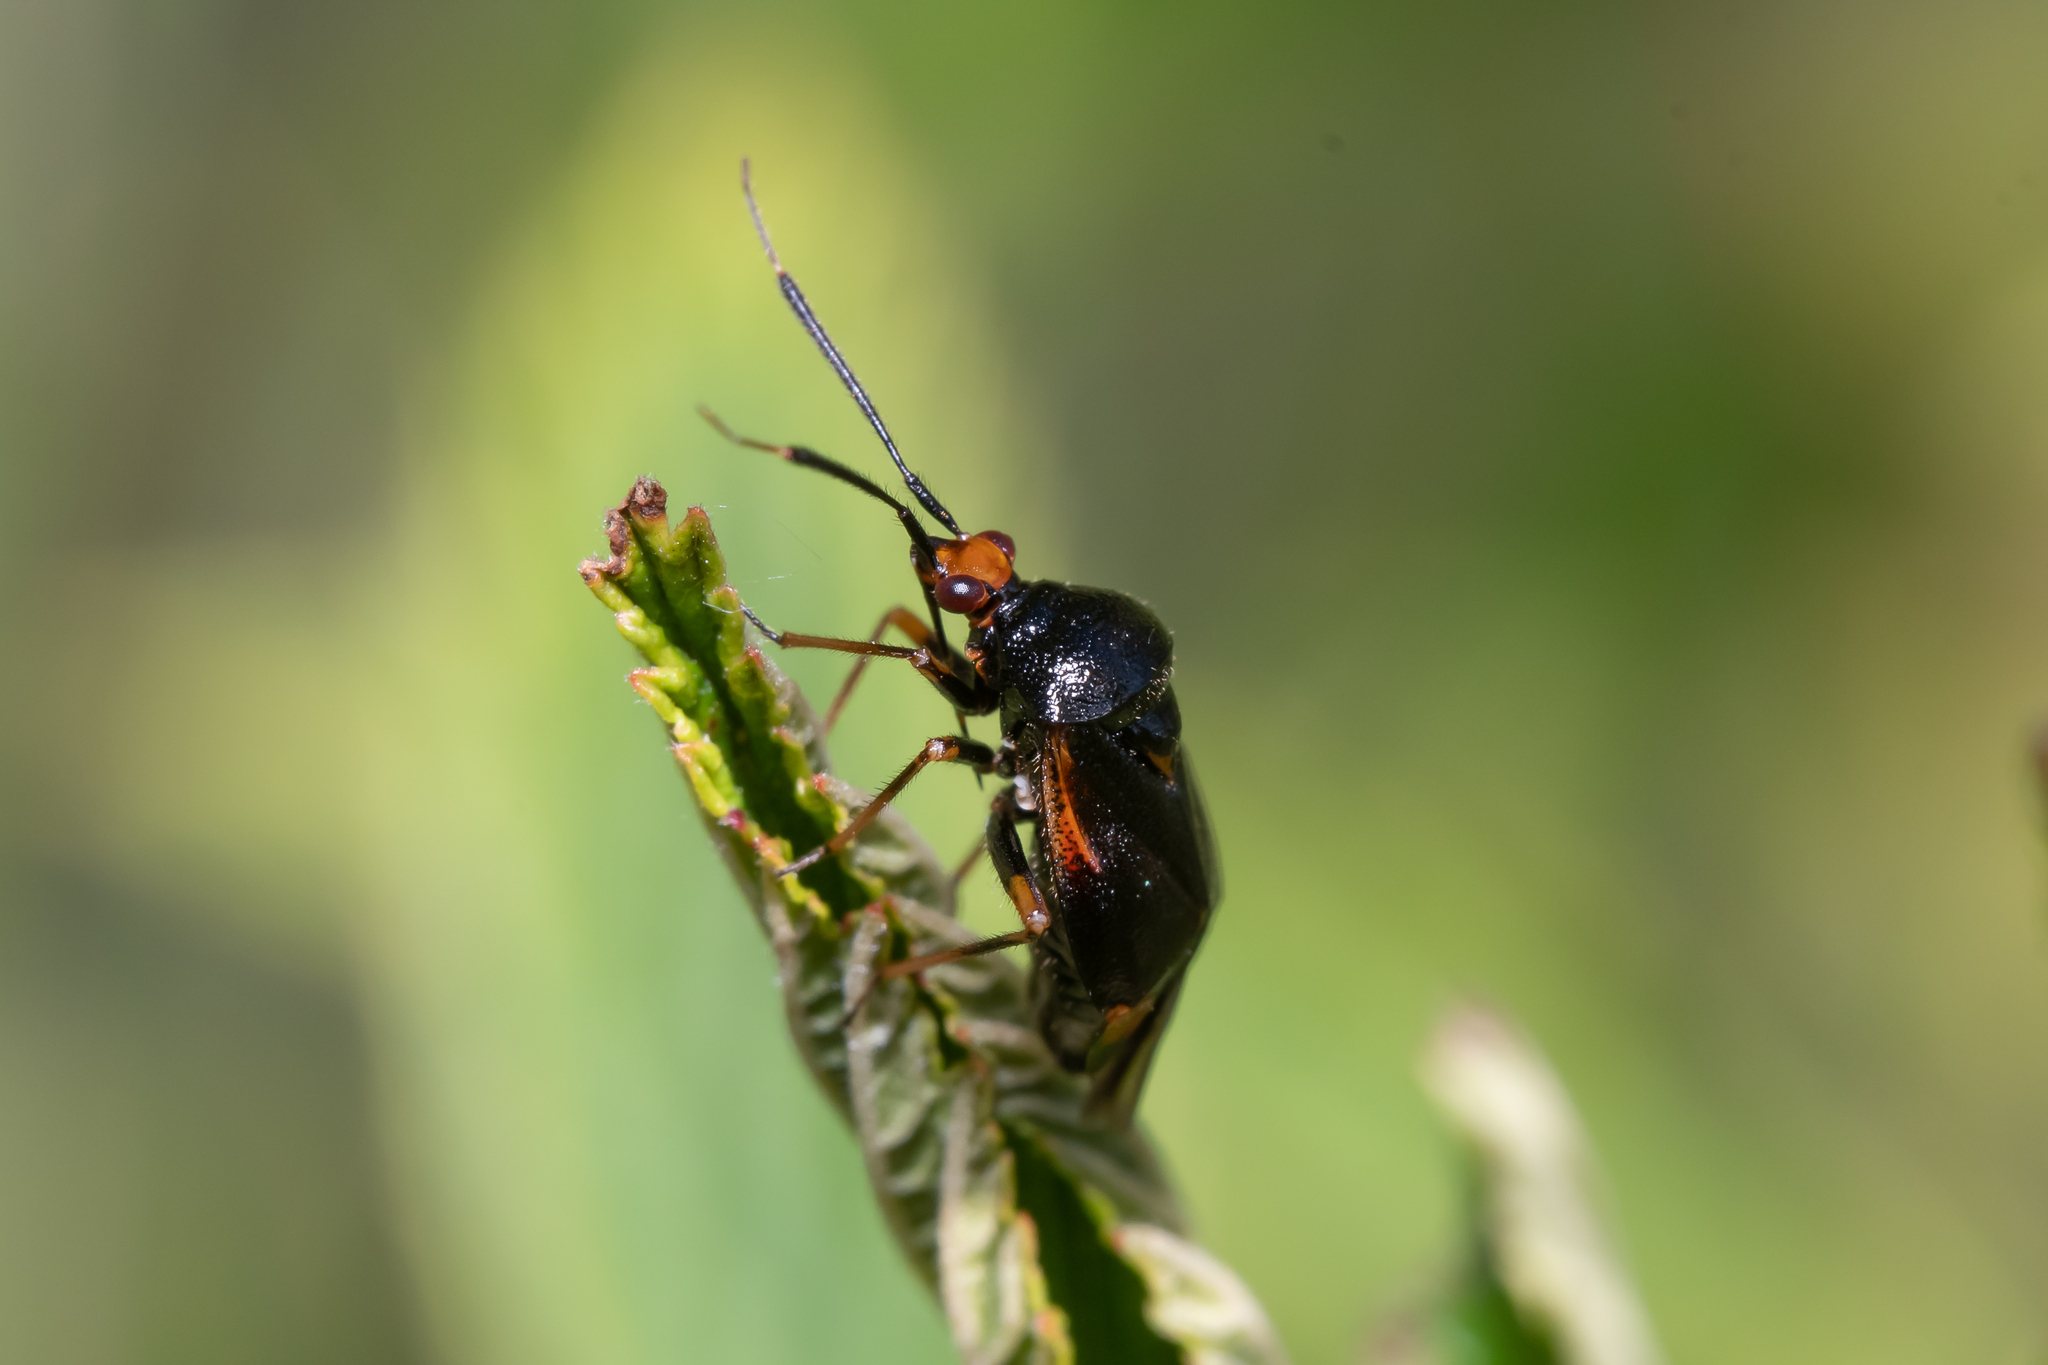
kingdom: Animalia
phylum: Arthropoda
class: Insecta
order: Hemiptera
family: Miridae
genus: Deraeocoris
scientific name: Deraeocoris ruber
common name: Plant bug
